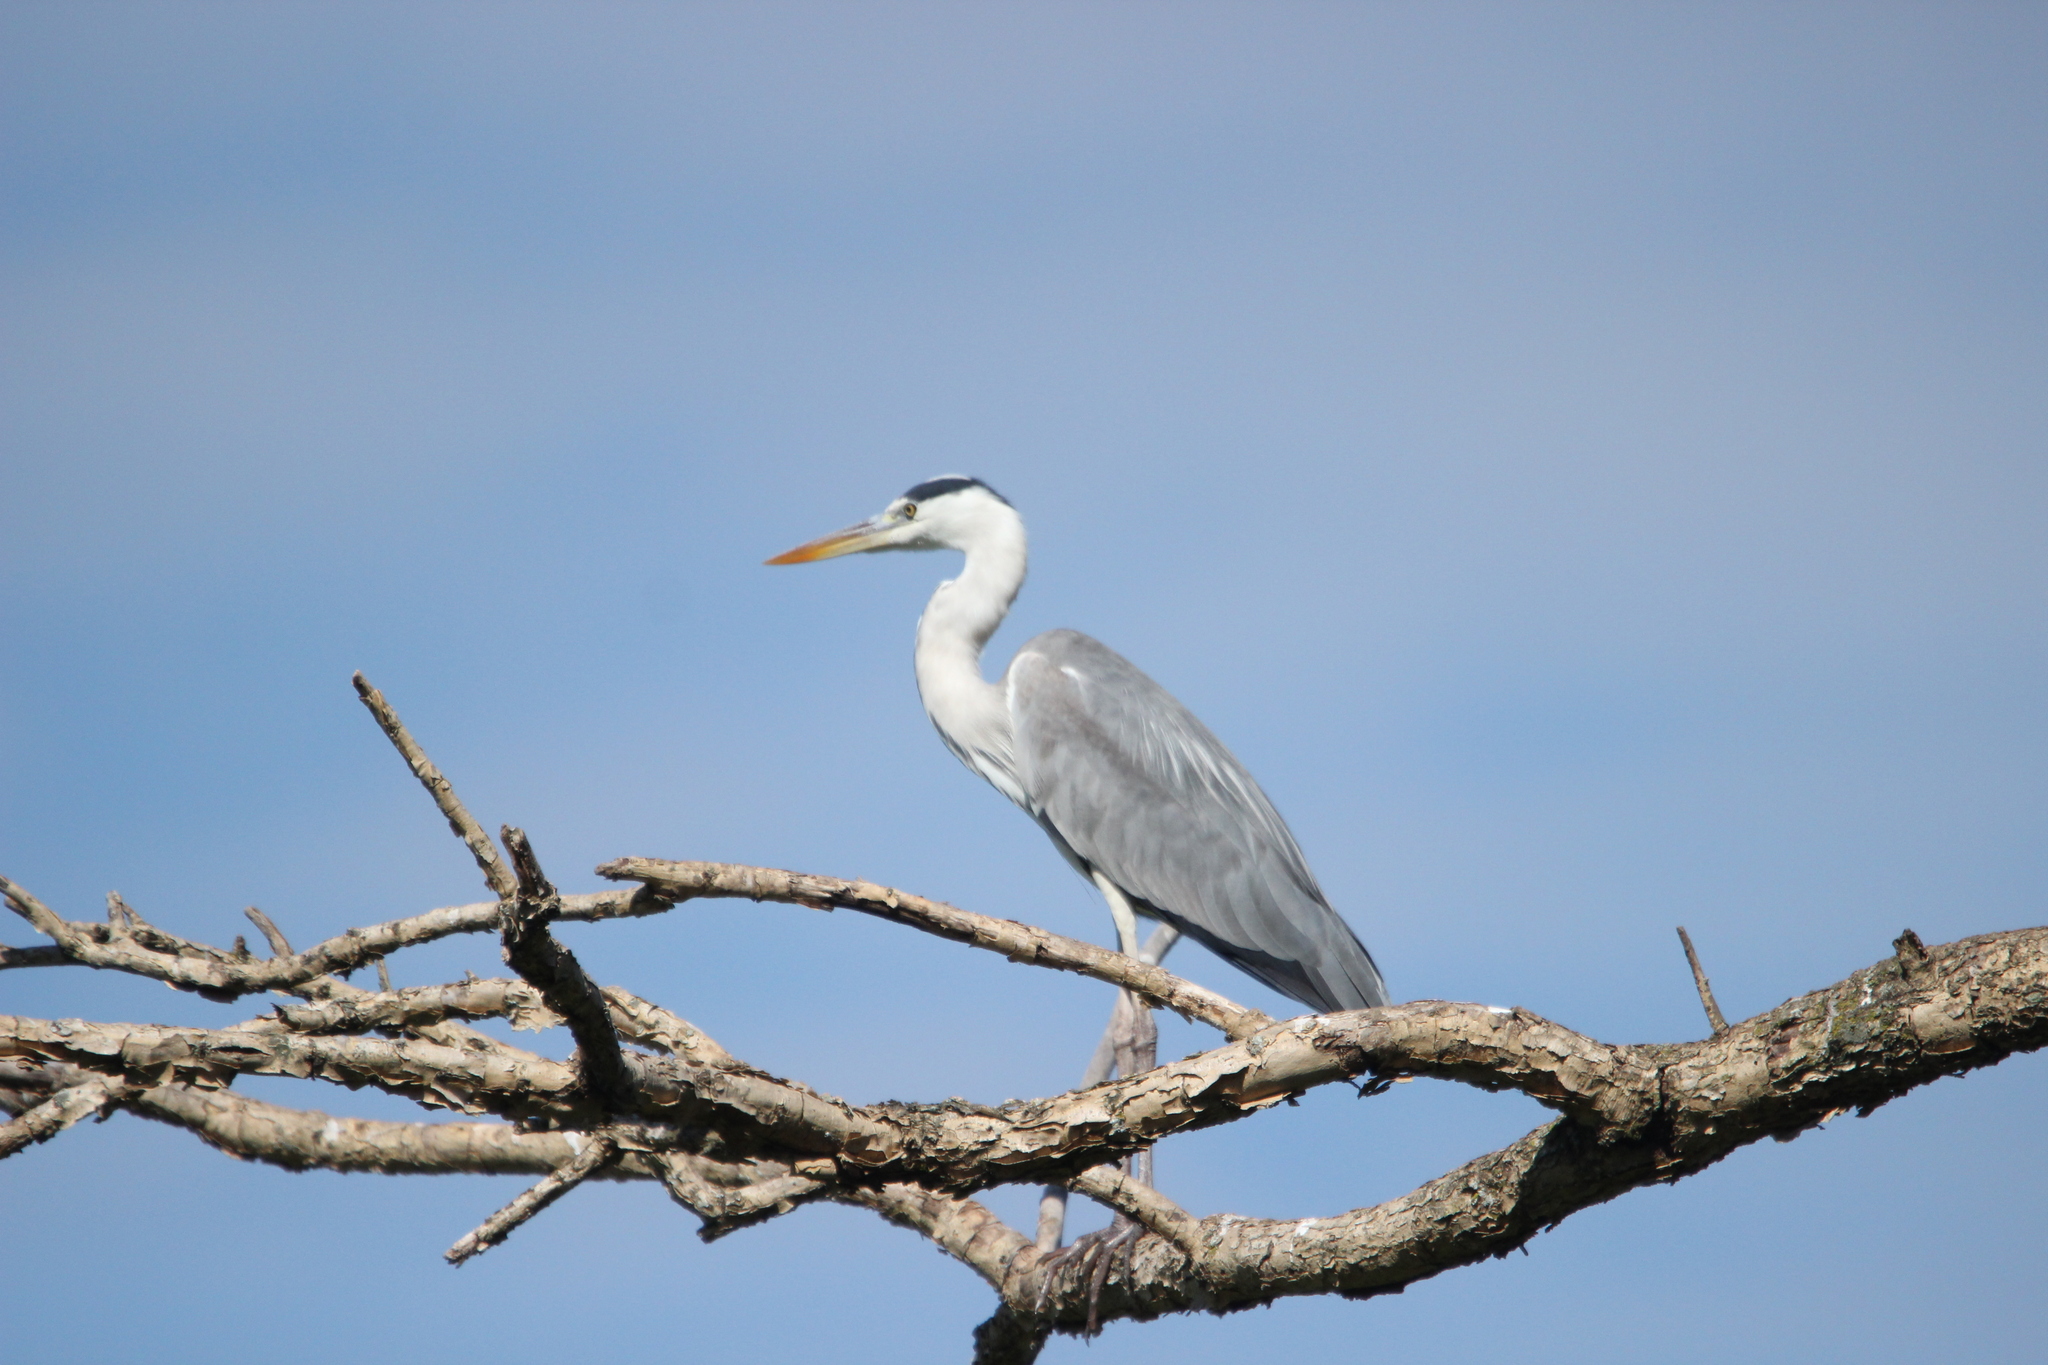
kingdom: Animalia
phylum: Chordata
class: Aves
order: Pelecaniformes
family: Ardeidae
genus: Ardea
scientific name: Ardea cinerea
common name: Grey heron
